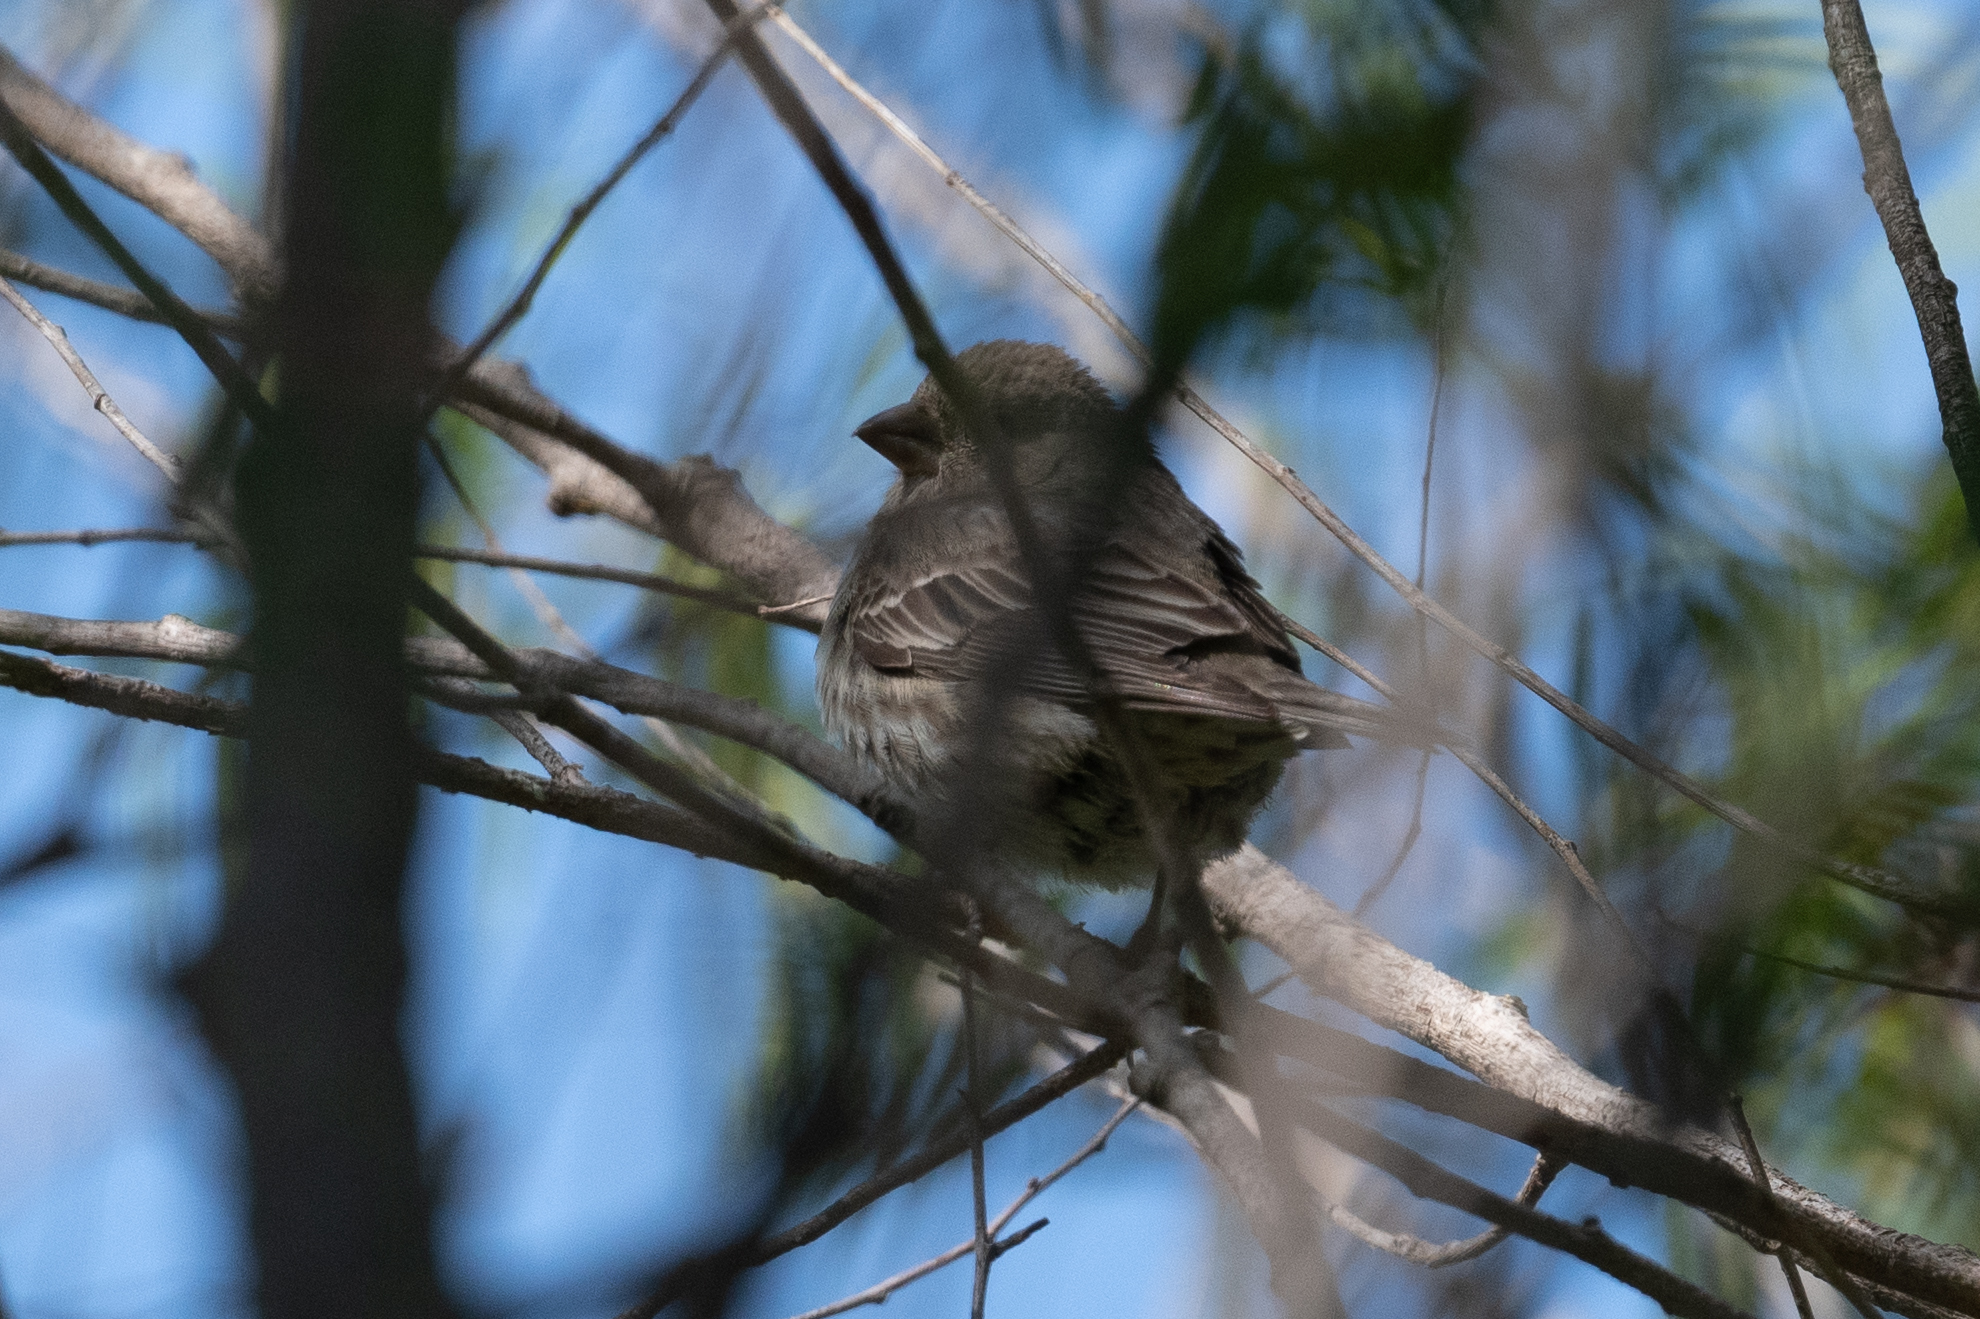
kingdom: Animalia
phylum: Chordata
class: Aves
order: Passeriformes
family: Fringillidae
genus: Haemorhous
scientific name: Haemorhous mexicanus
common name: House finch
